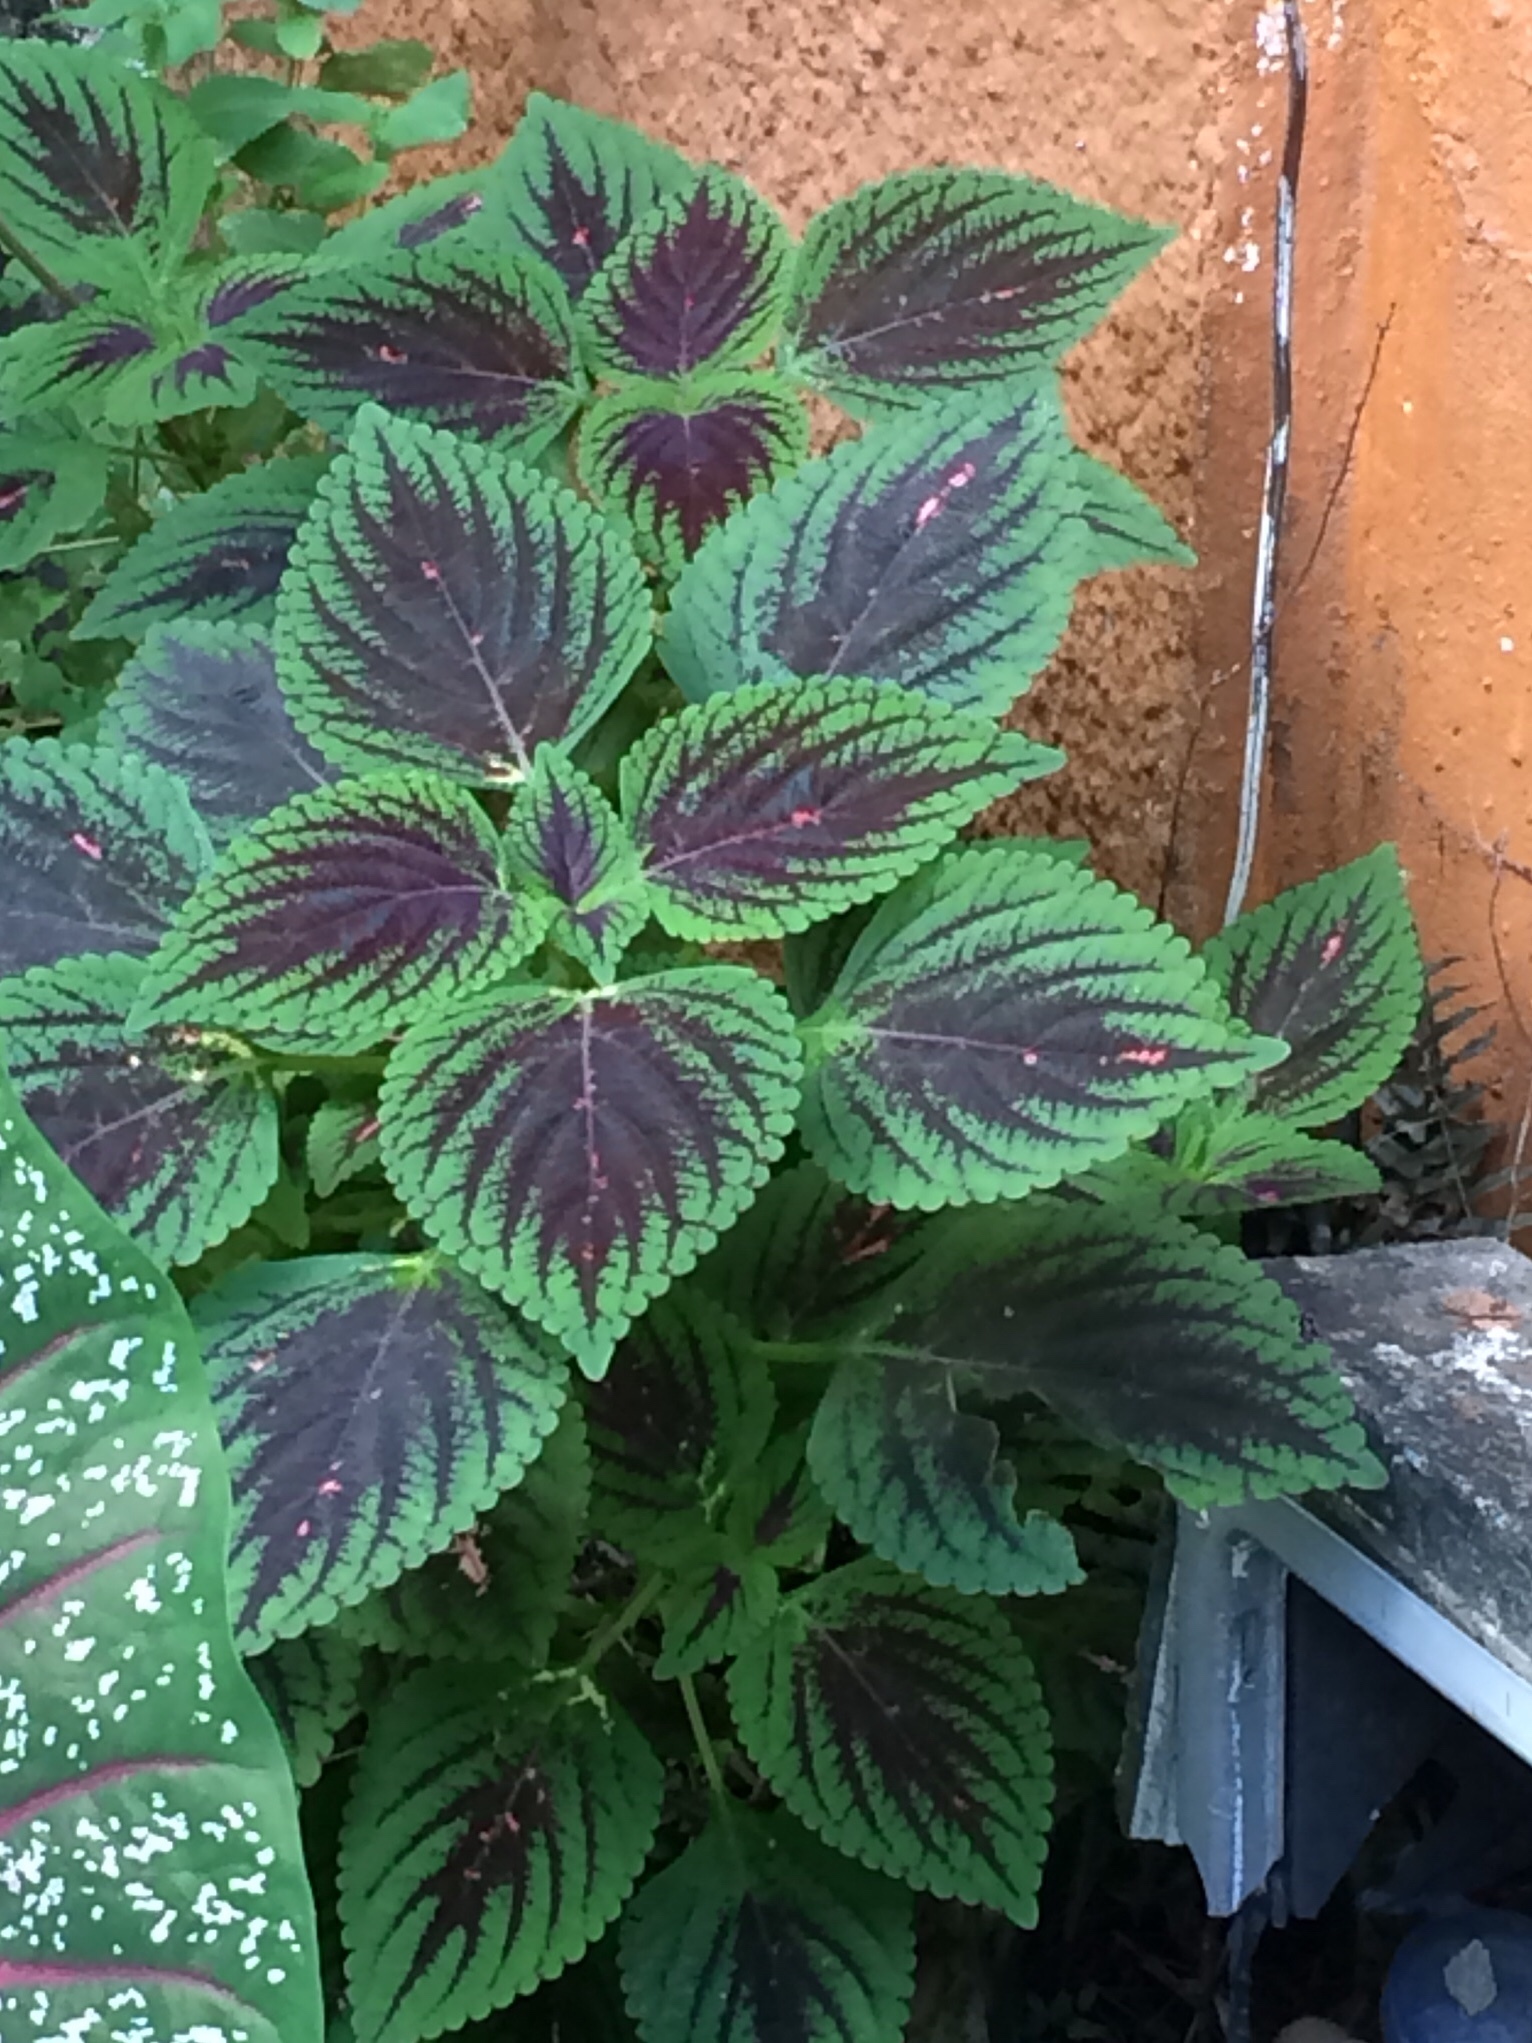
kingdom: Plantae
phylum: Tracheophyta
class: Magnoliopsida
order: Lamiales
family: Lamiaceae
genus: Coleus
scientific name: Coleus scutellarioides
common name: Coleus
